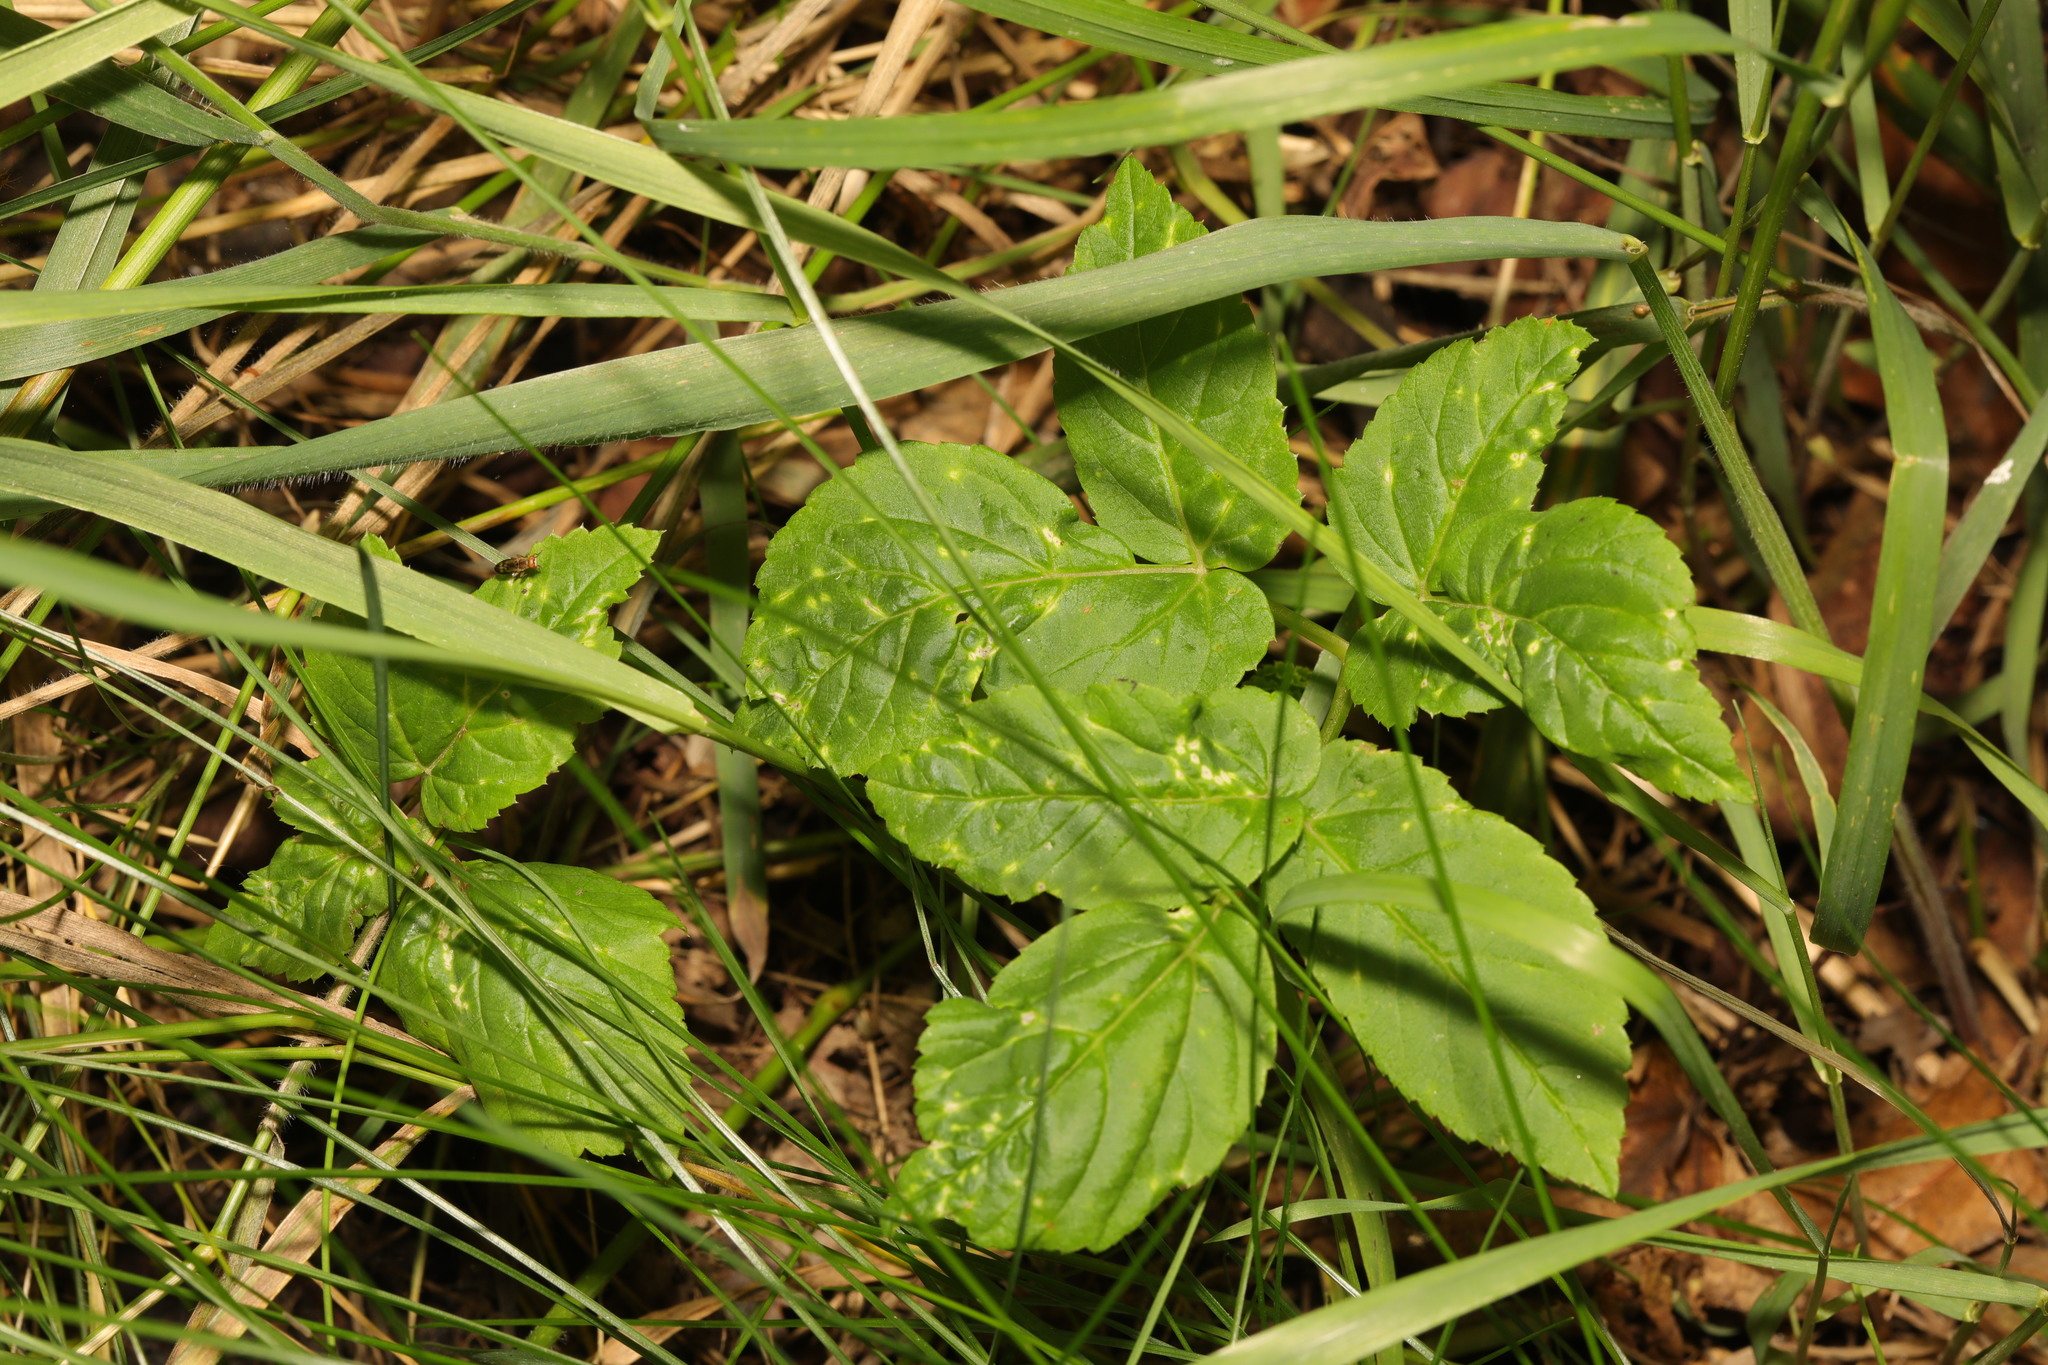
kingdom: Plantae
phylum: Tracheophyta
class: Magnoliopsida
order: Apiales
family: Apiaceae
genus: Aegopodium
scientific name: Aegopodium podagraria
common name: Ground-elder
